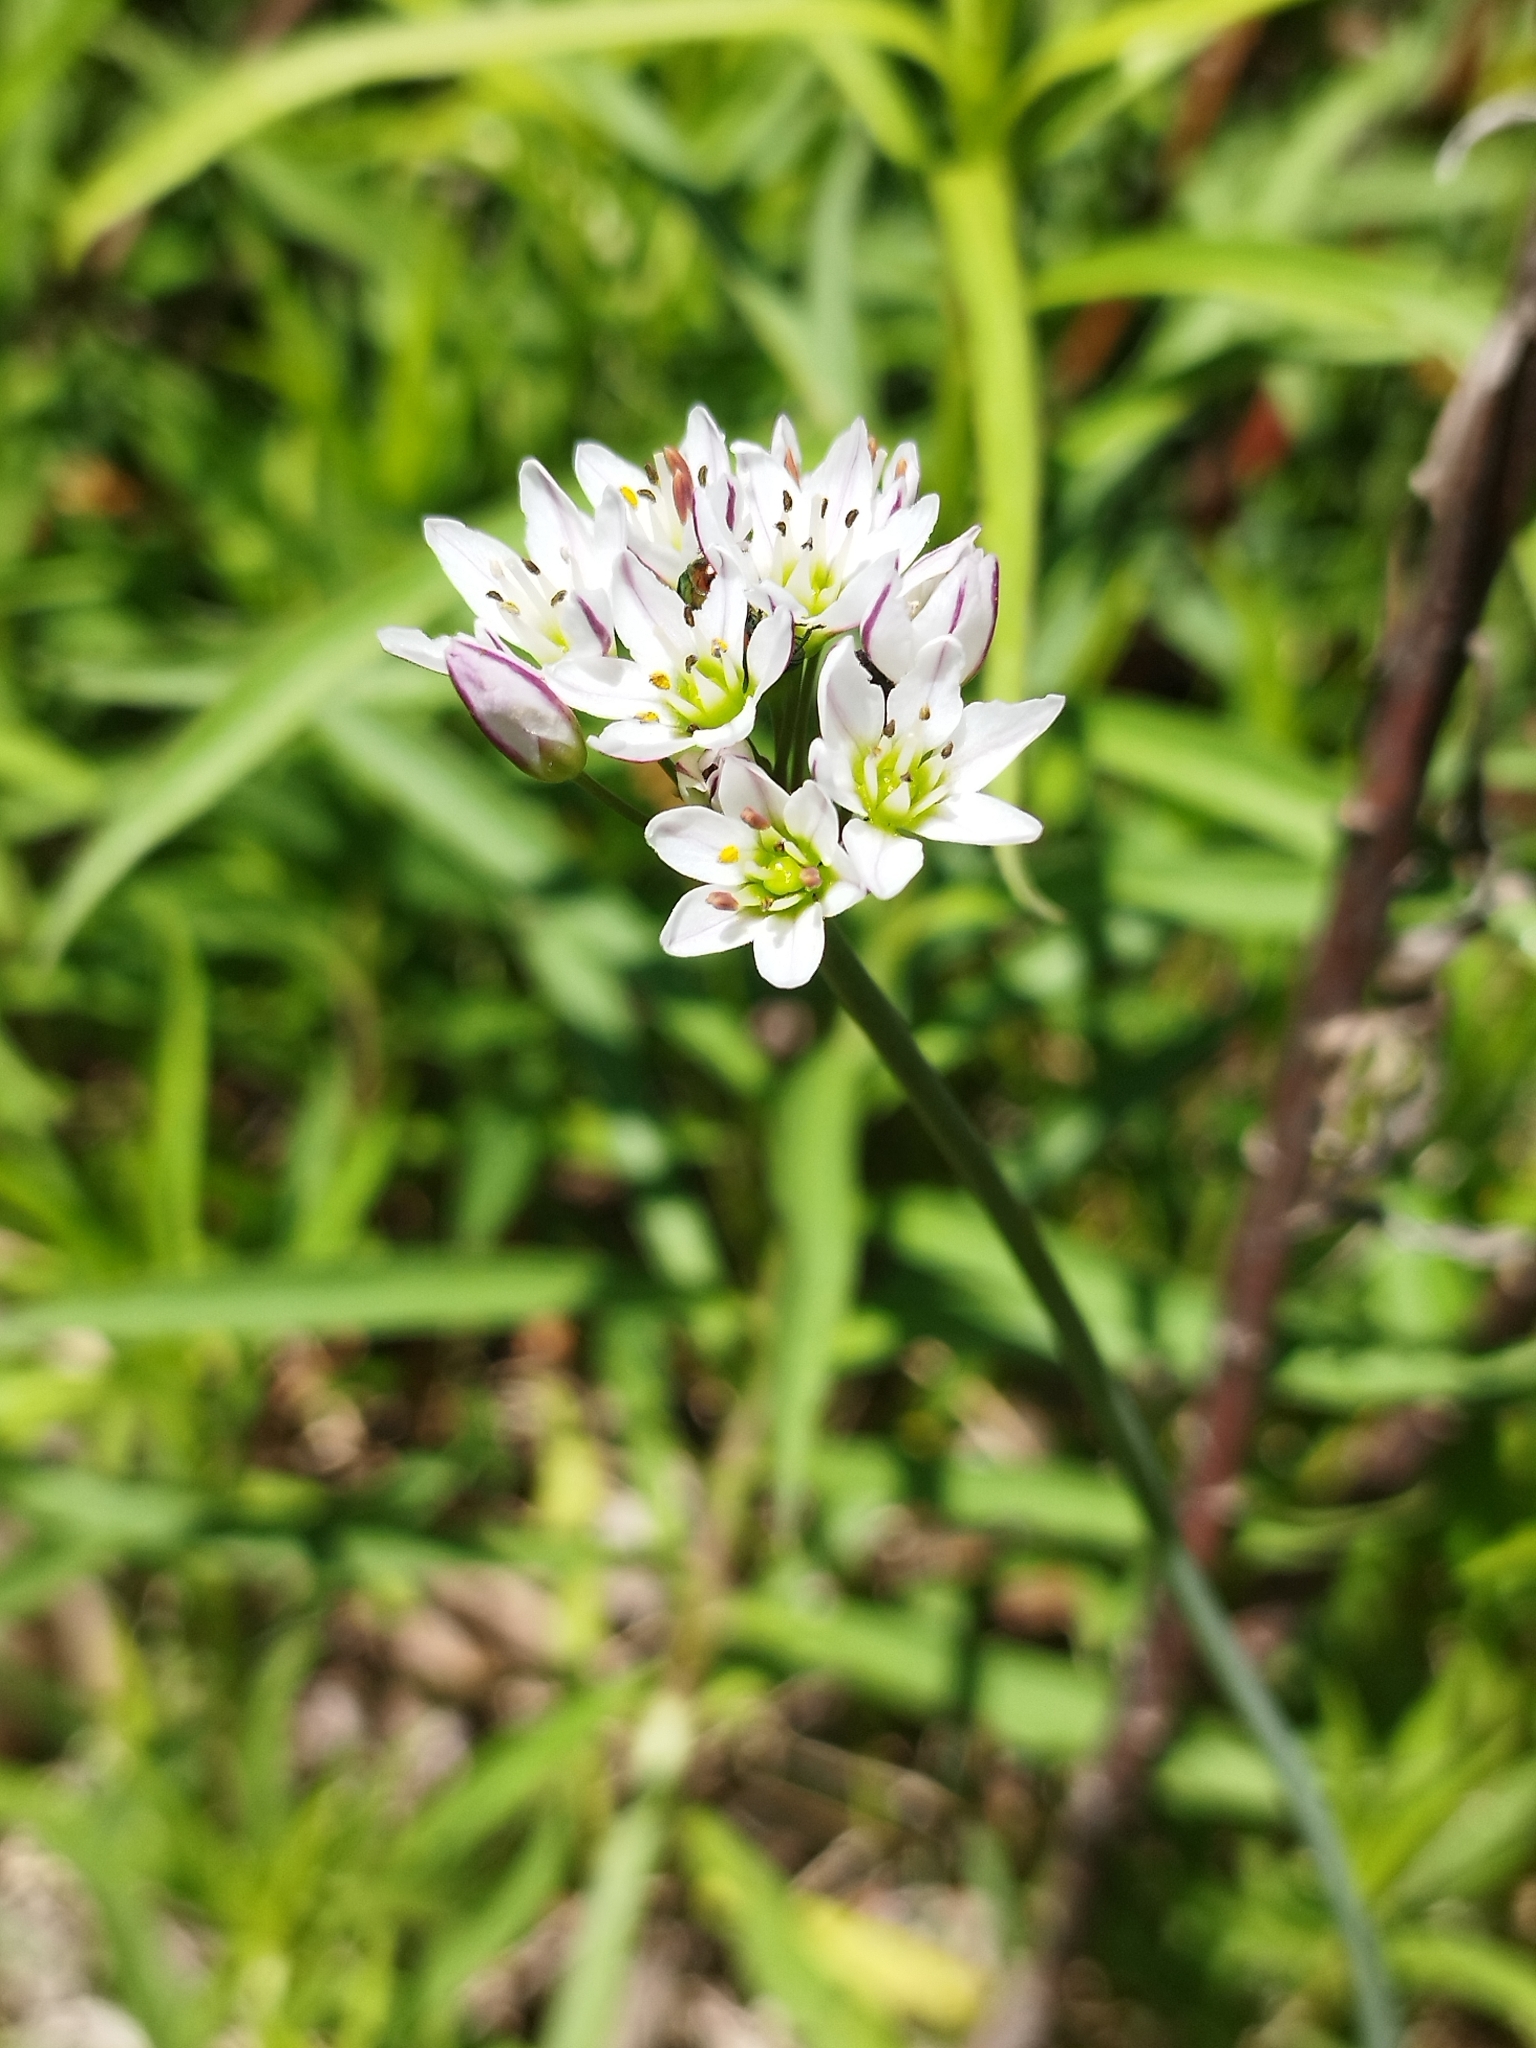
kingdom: Plantae
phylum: Tracheophyta
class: Liliopsida
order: Asparagales
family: Amaryllidaceae
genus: Nothoscordum
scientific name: Nothoscordum gracile
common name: Slender false garlic
